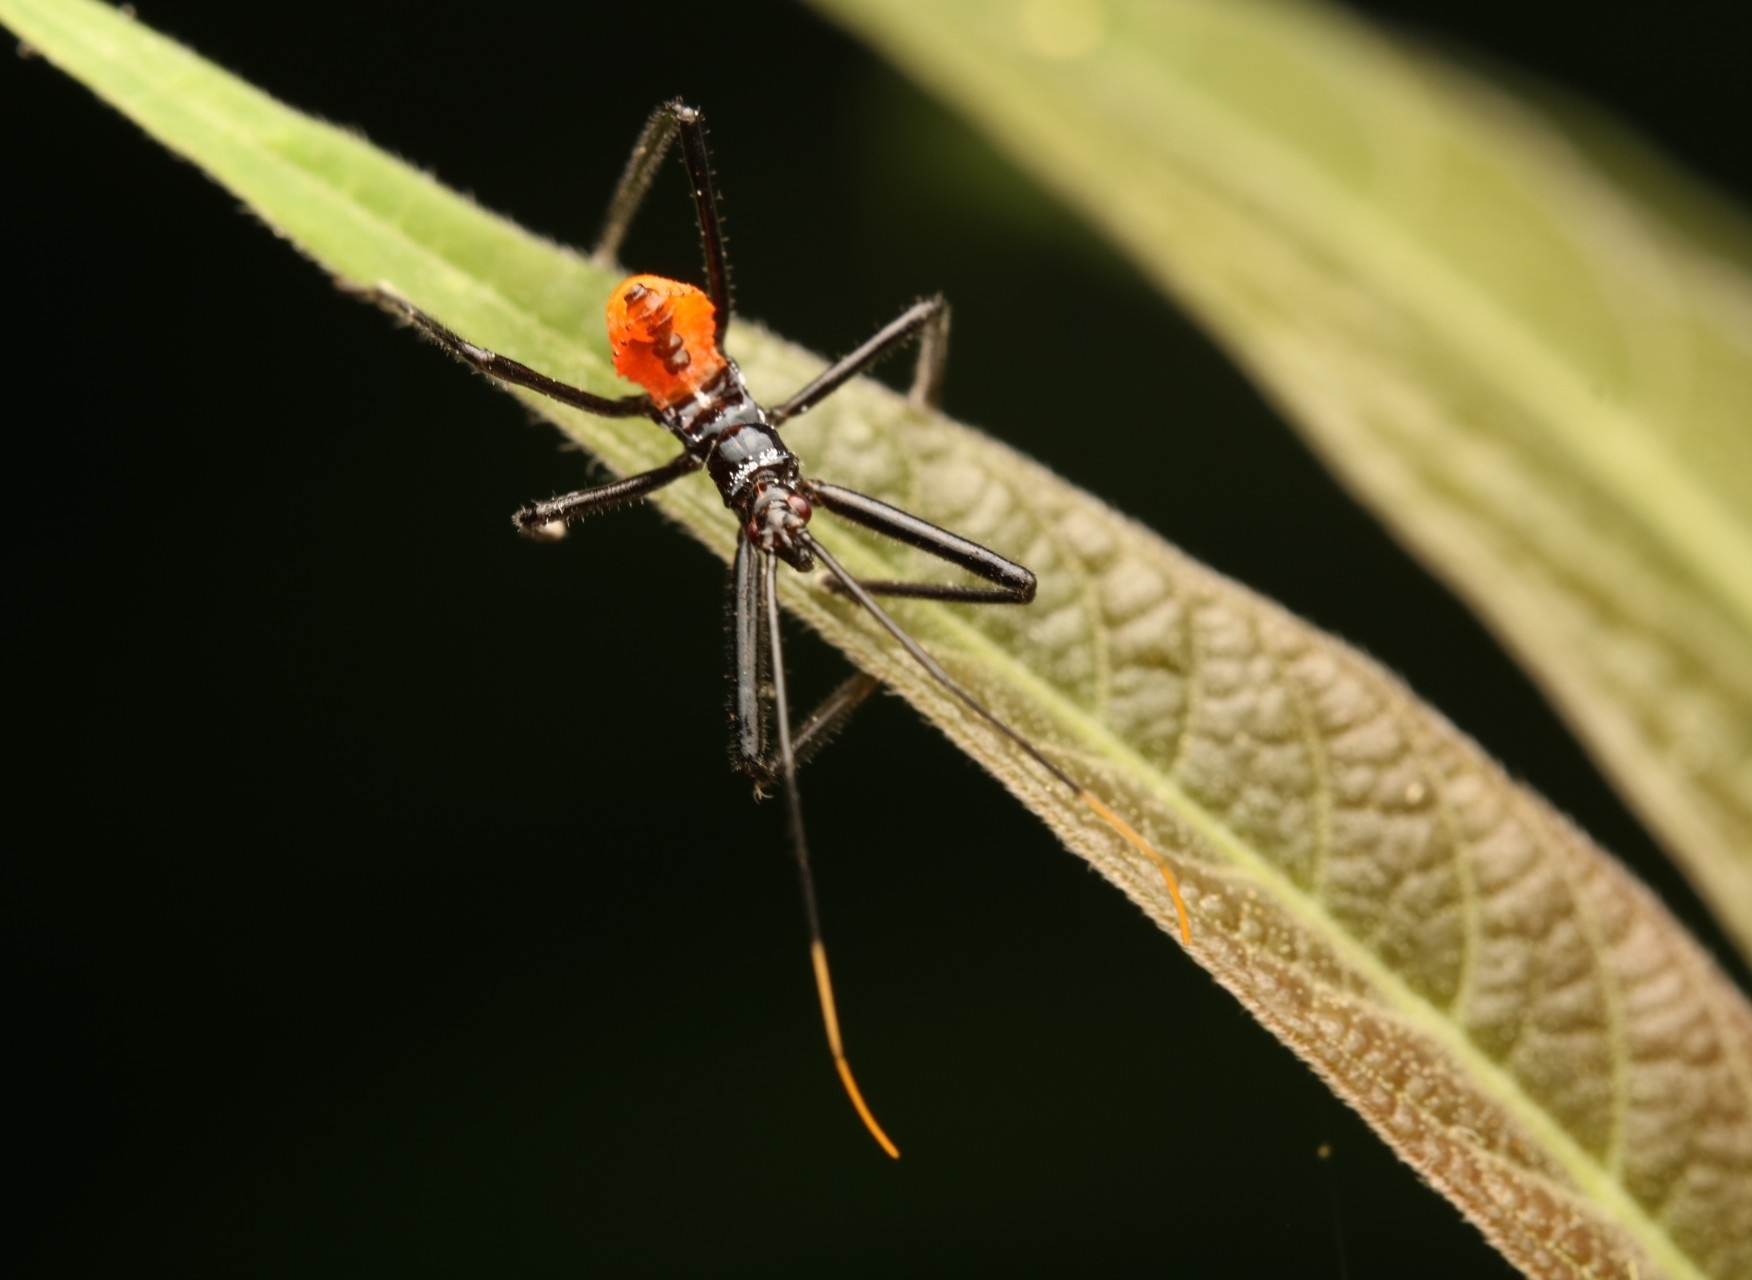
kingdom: Animalia
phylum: Arthropoda
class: Insecta
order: Hemiptera
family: Reduviidae
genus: Arilus
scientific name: Arilus cristatus
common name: North american wheel bug
